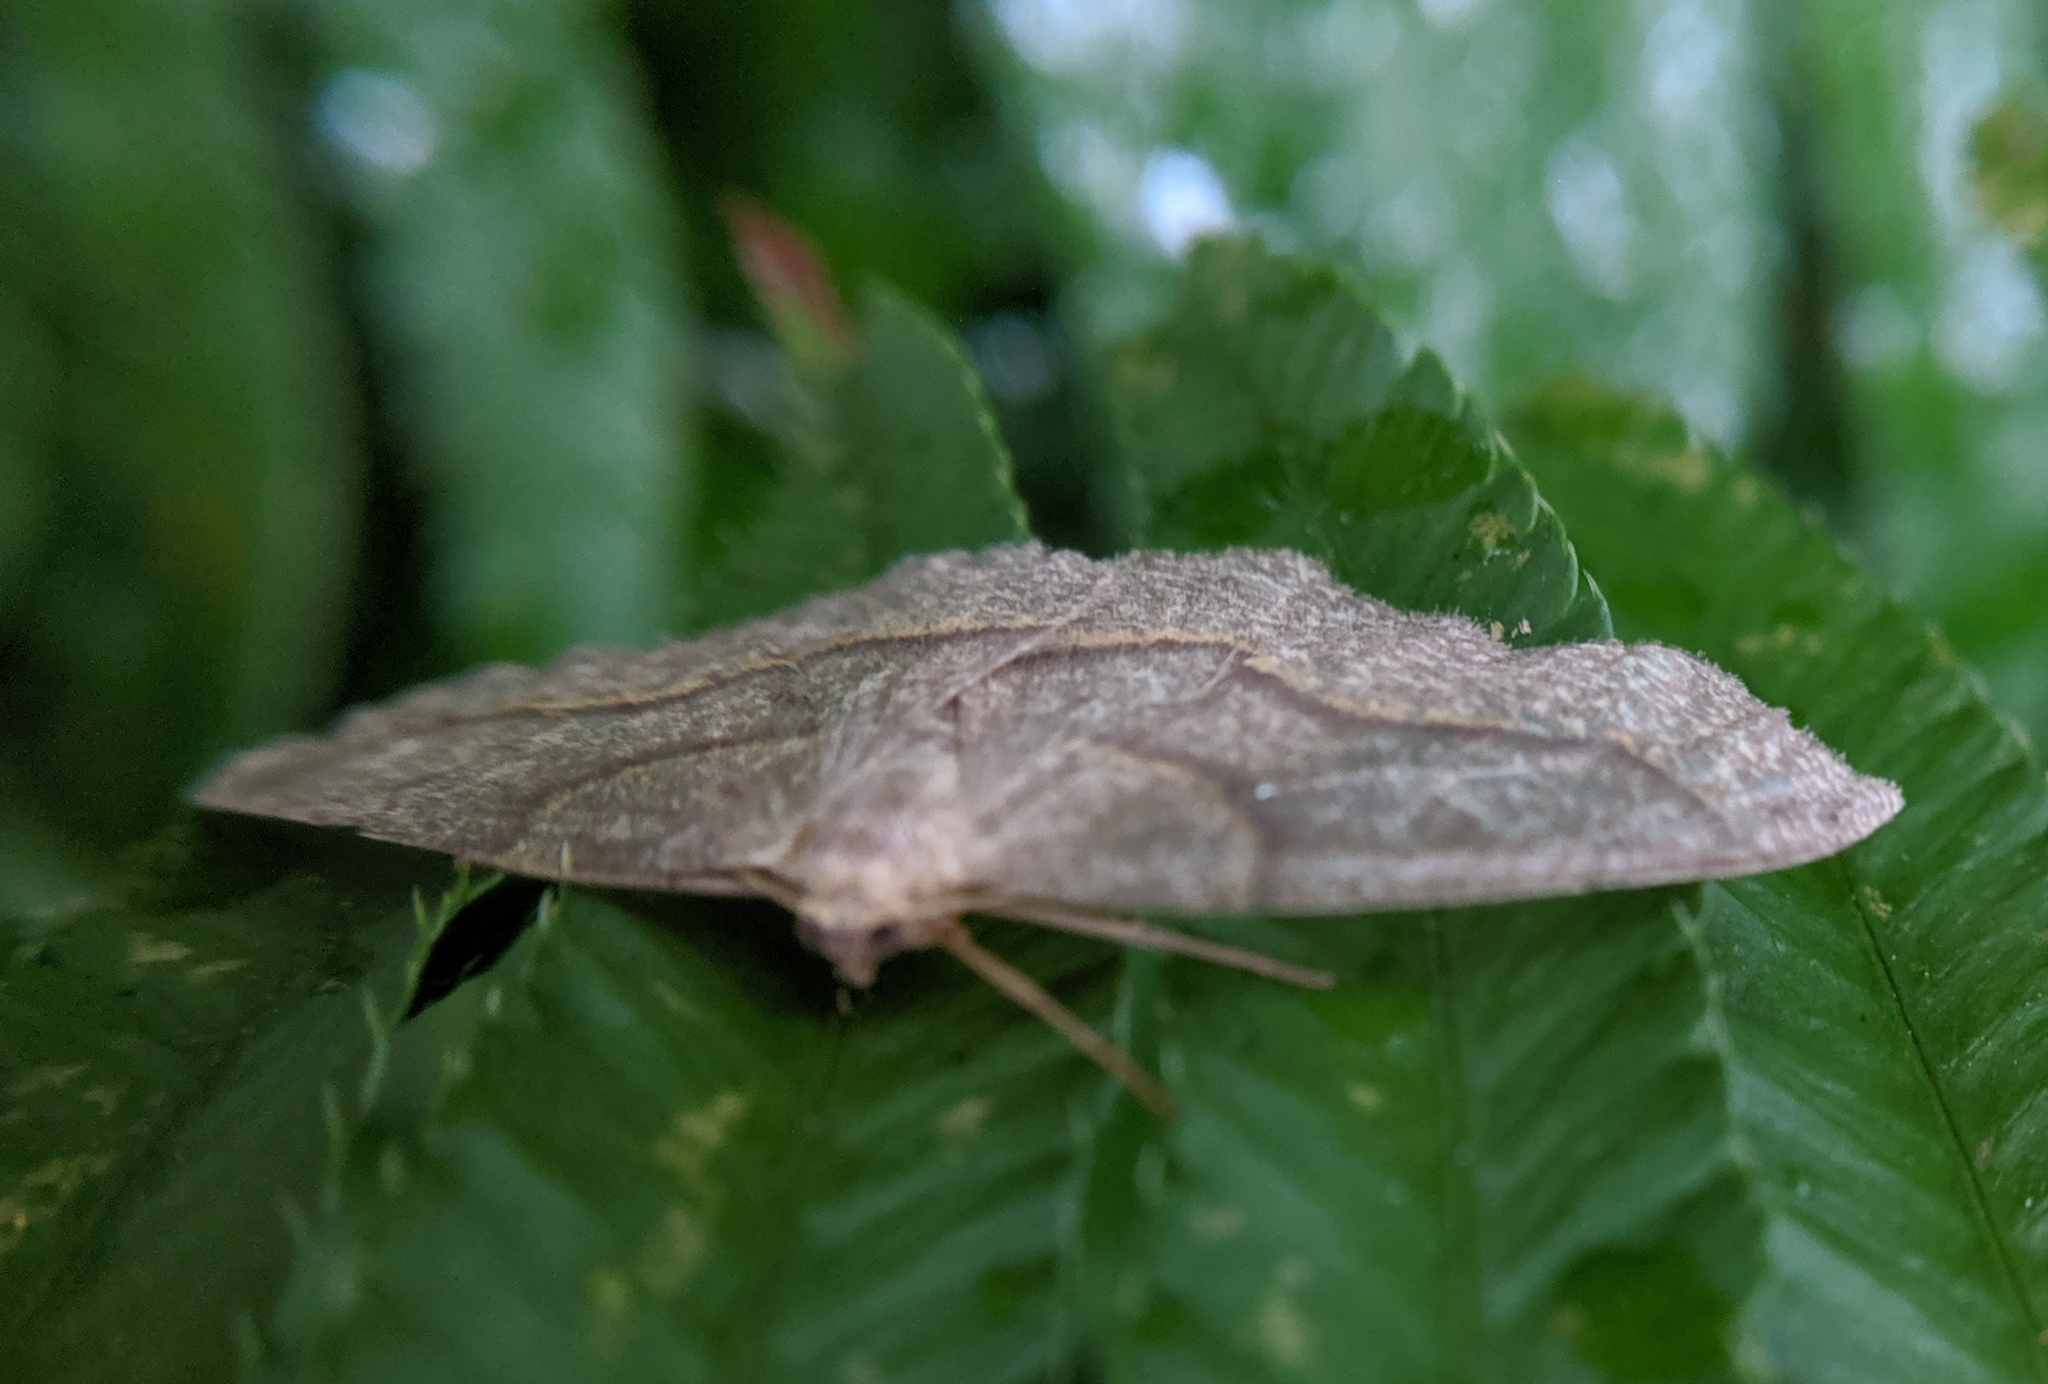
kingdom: Animalia
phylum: Arthropoda
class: Insecta
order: Lepidoptera
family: Geometridae
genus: Lambdina
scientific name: Lambdina fiscellaria
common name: Hemlock looper
